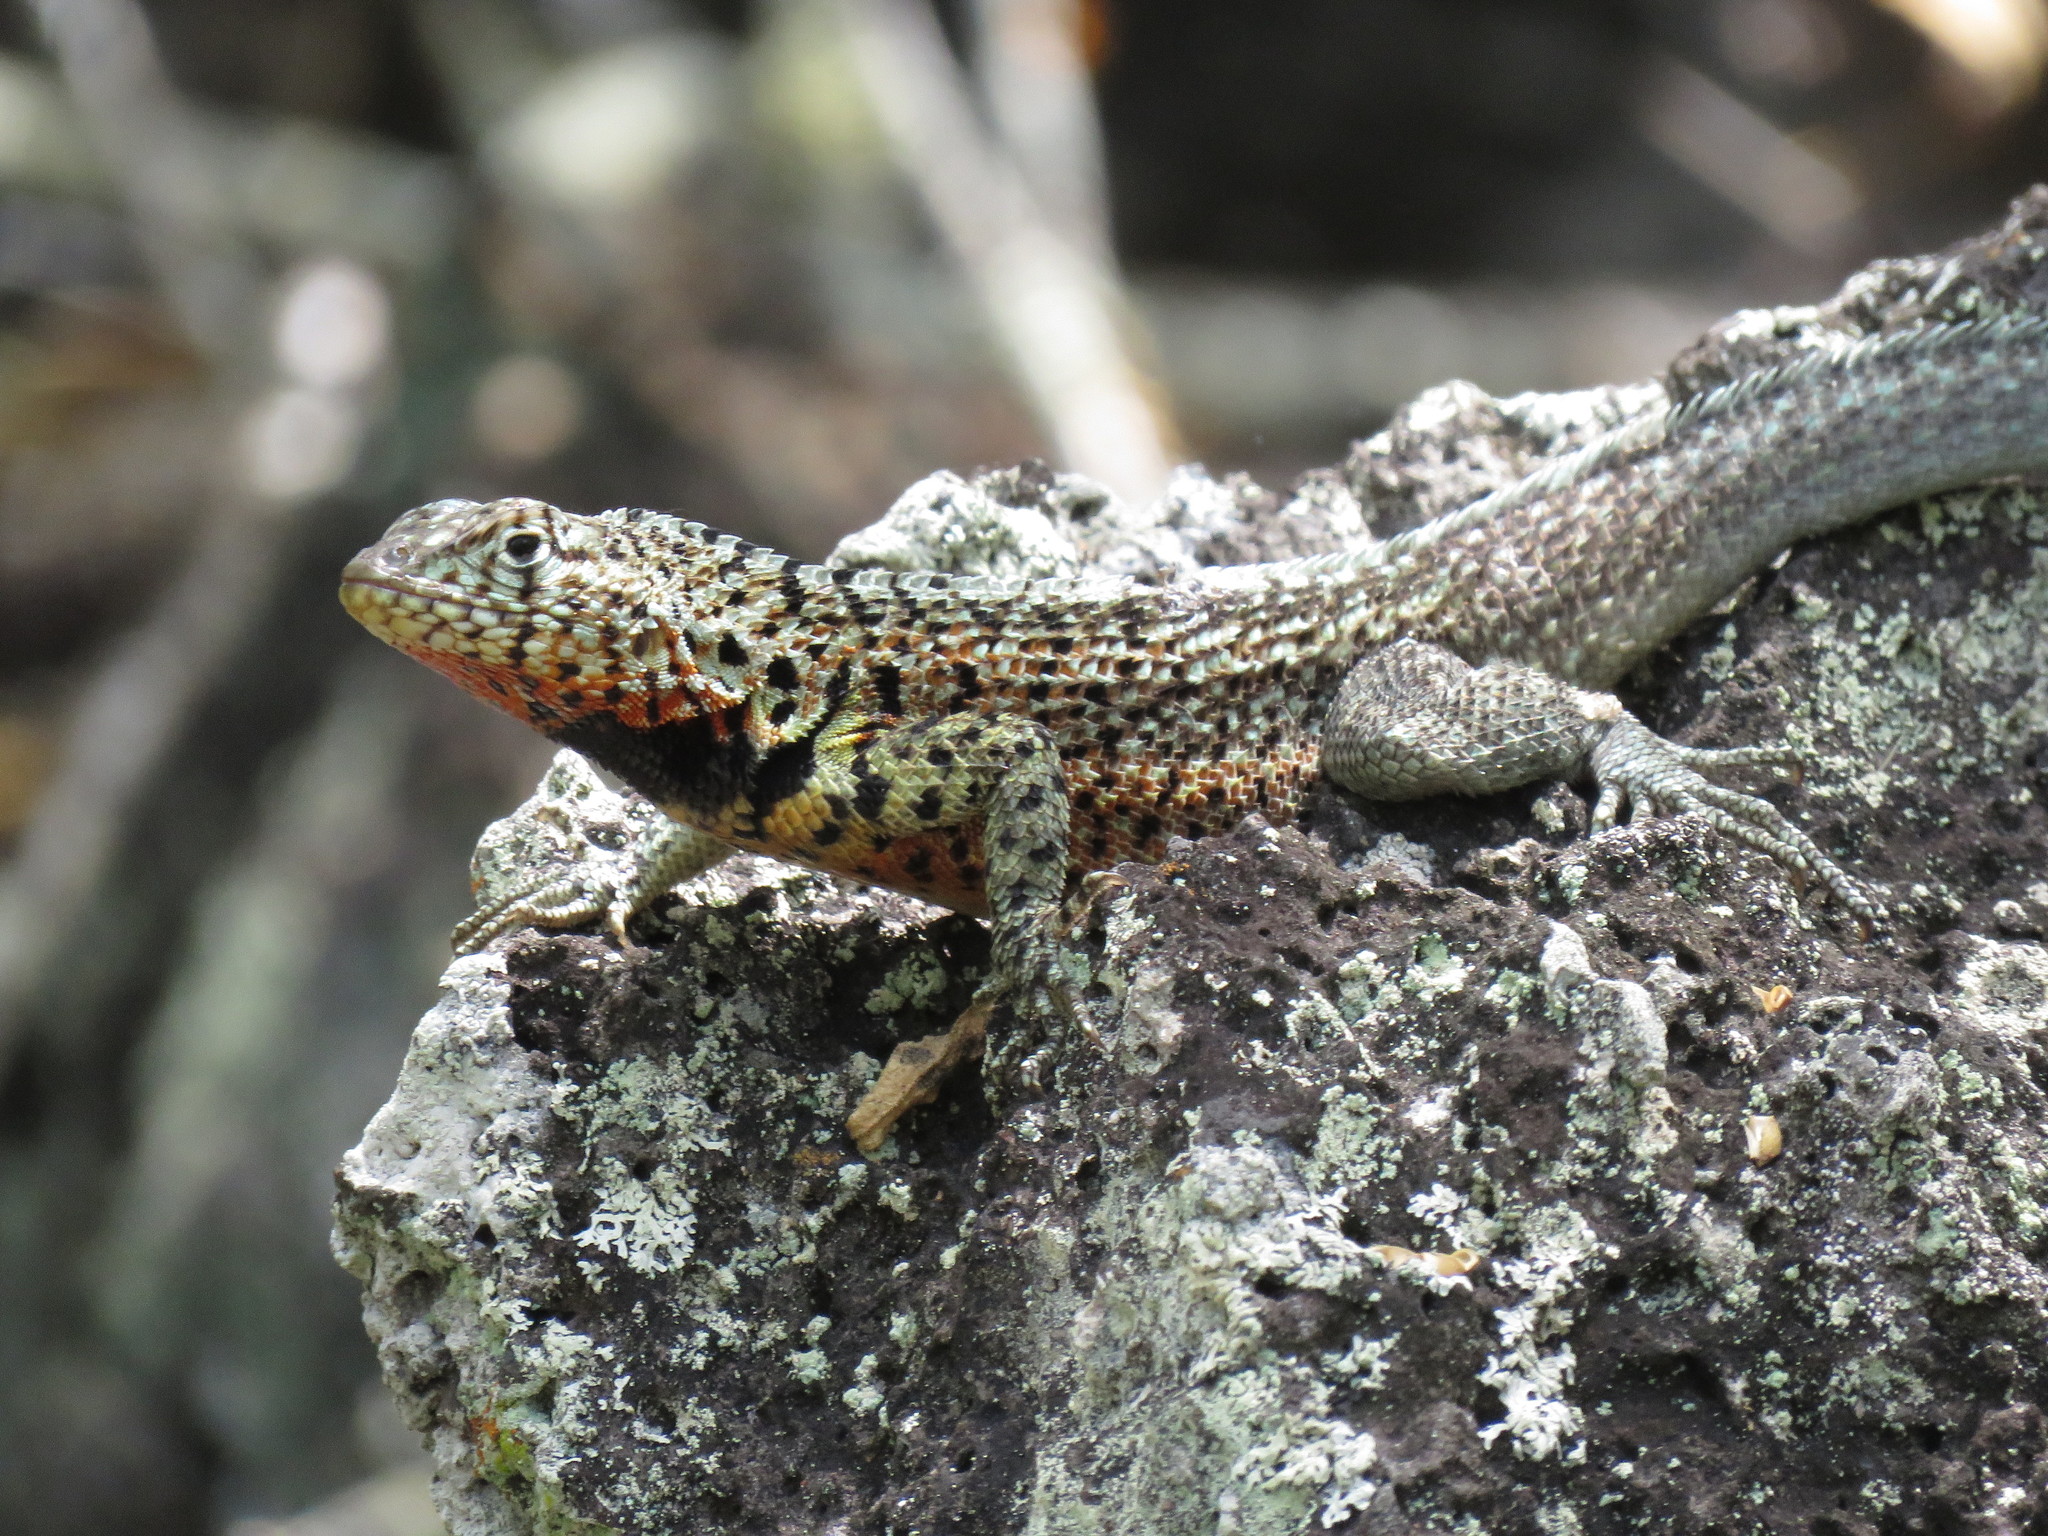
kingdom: Animalia
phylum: Chordata
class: Squamata
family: Tropiduridae
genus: Microlophus
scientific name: Microlophus indefatigabilis
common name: Galapagos lava lizard
